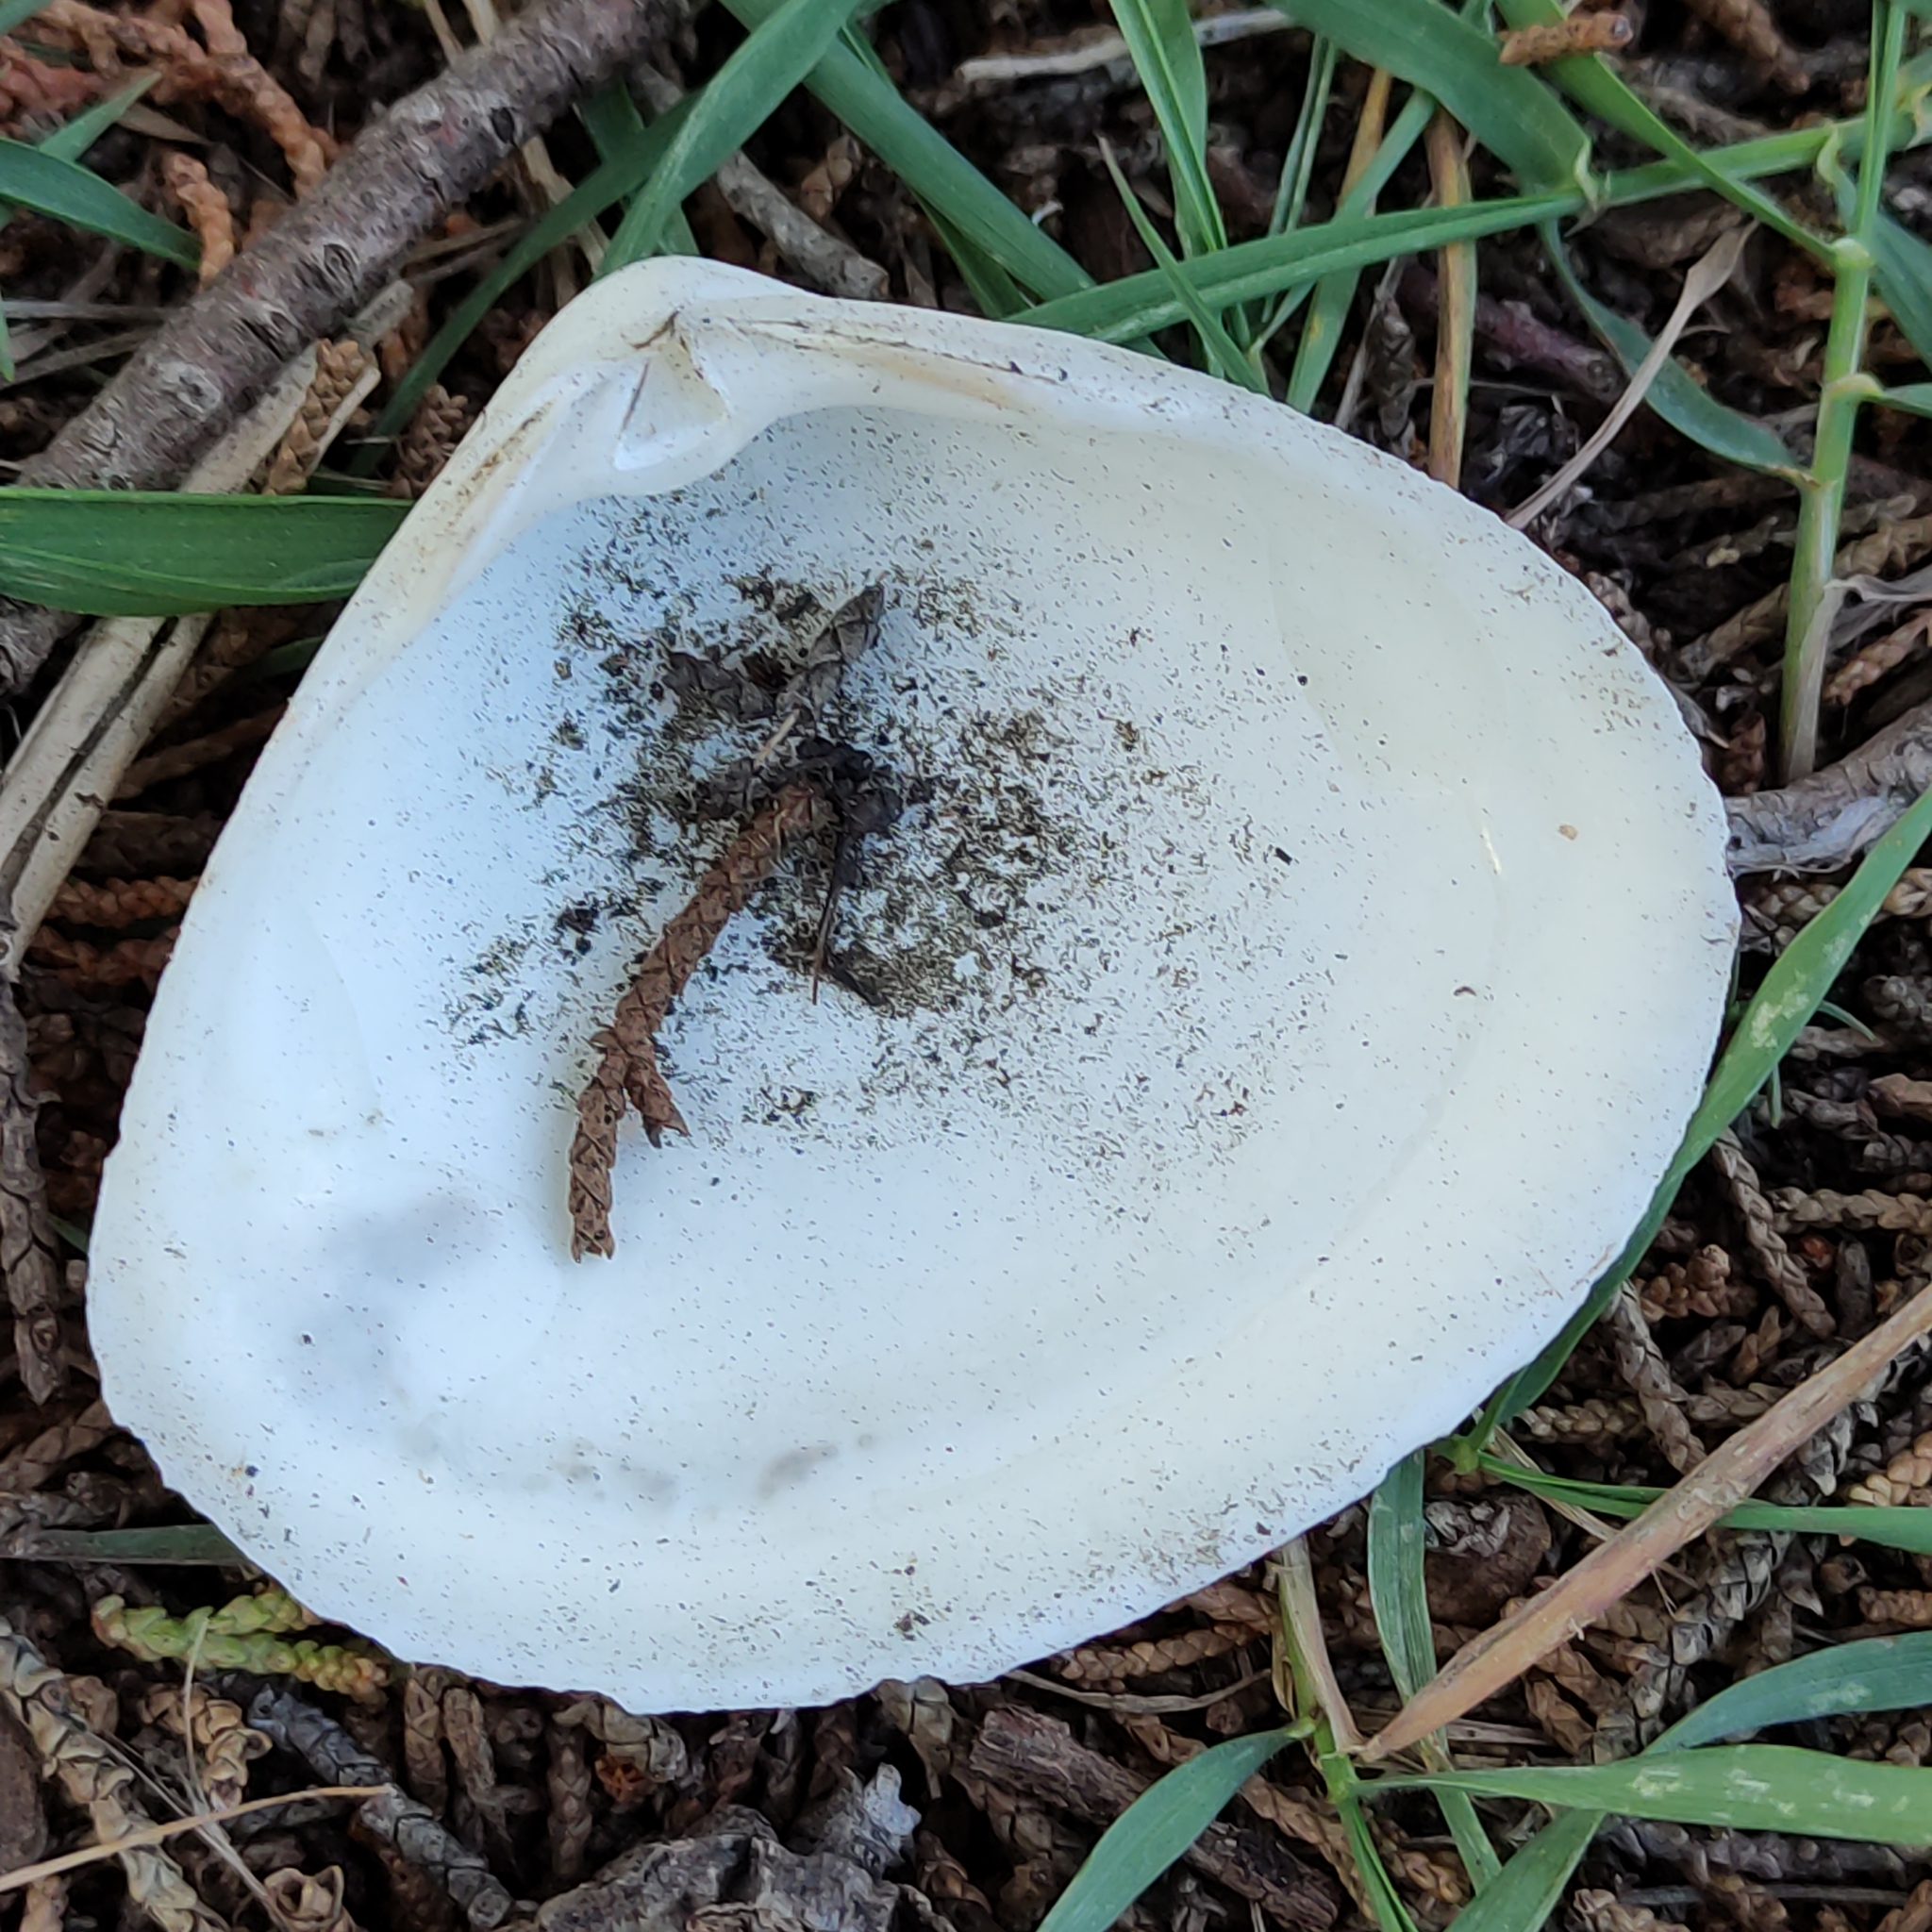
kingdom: Animalia
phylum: Mollusca
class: Bivalvia
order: Venerida
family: Mactridae
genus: Spisula
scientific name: Spisula murchisoni
